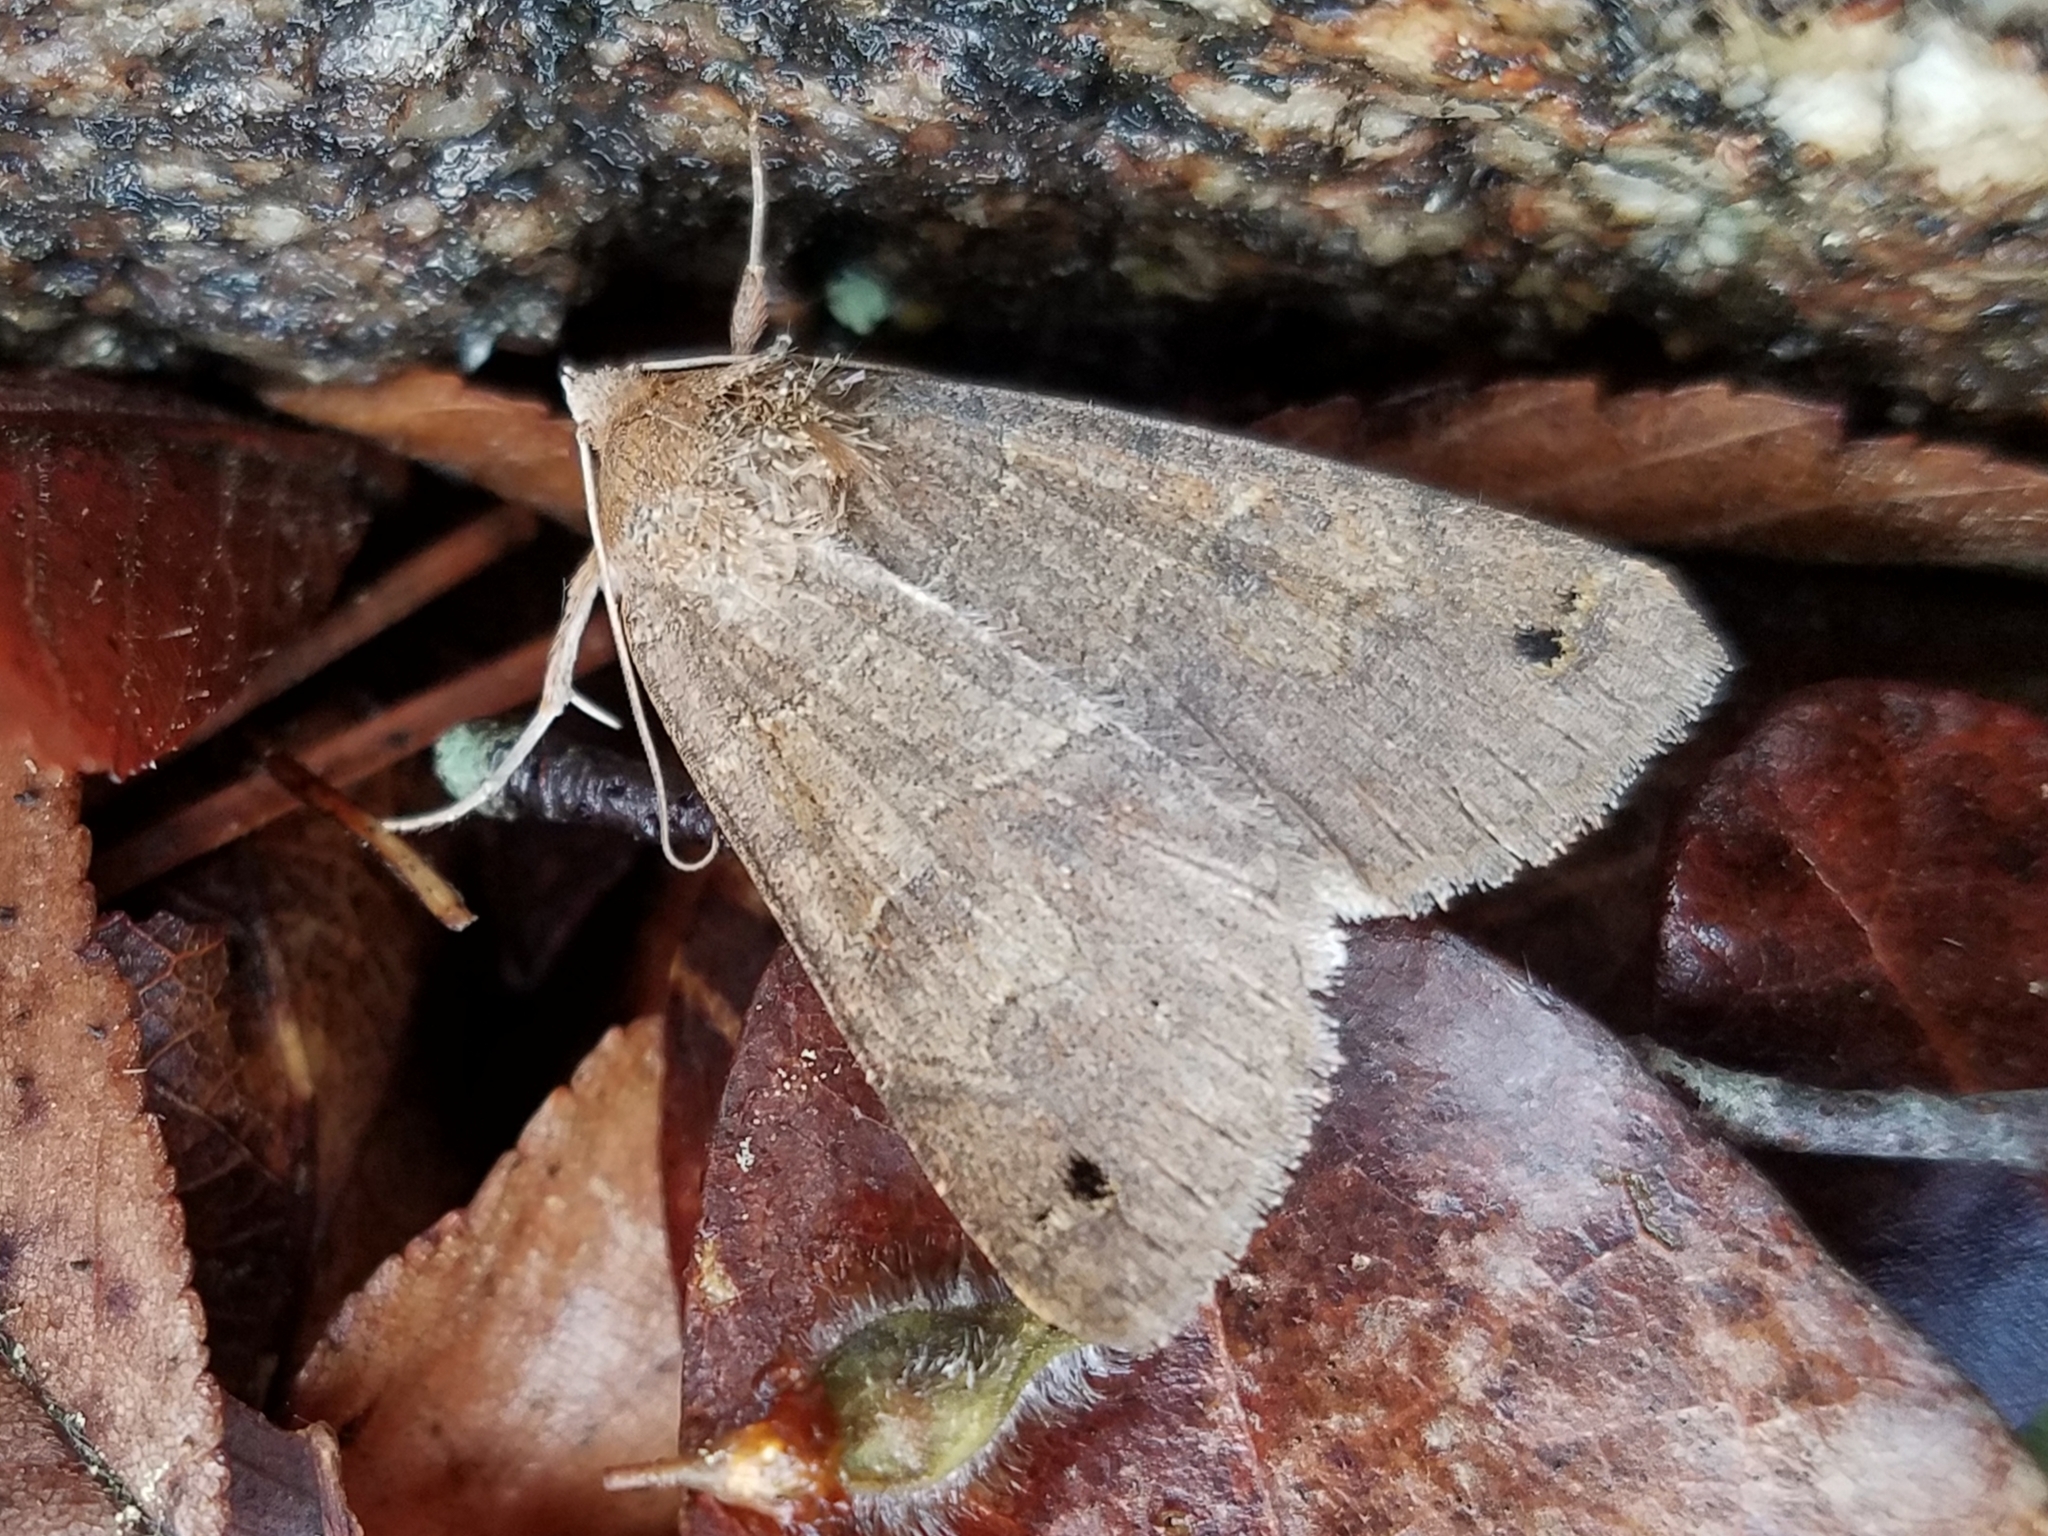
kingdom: Animalia
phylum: Arthropoda
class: Insecta
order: Lepidoptera
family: Erebidae
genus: Cissusa
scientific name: Cissusa spadix
